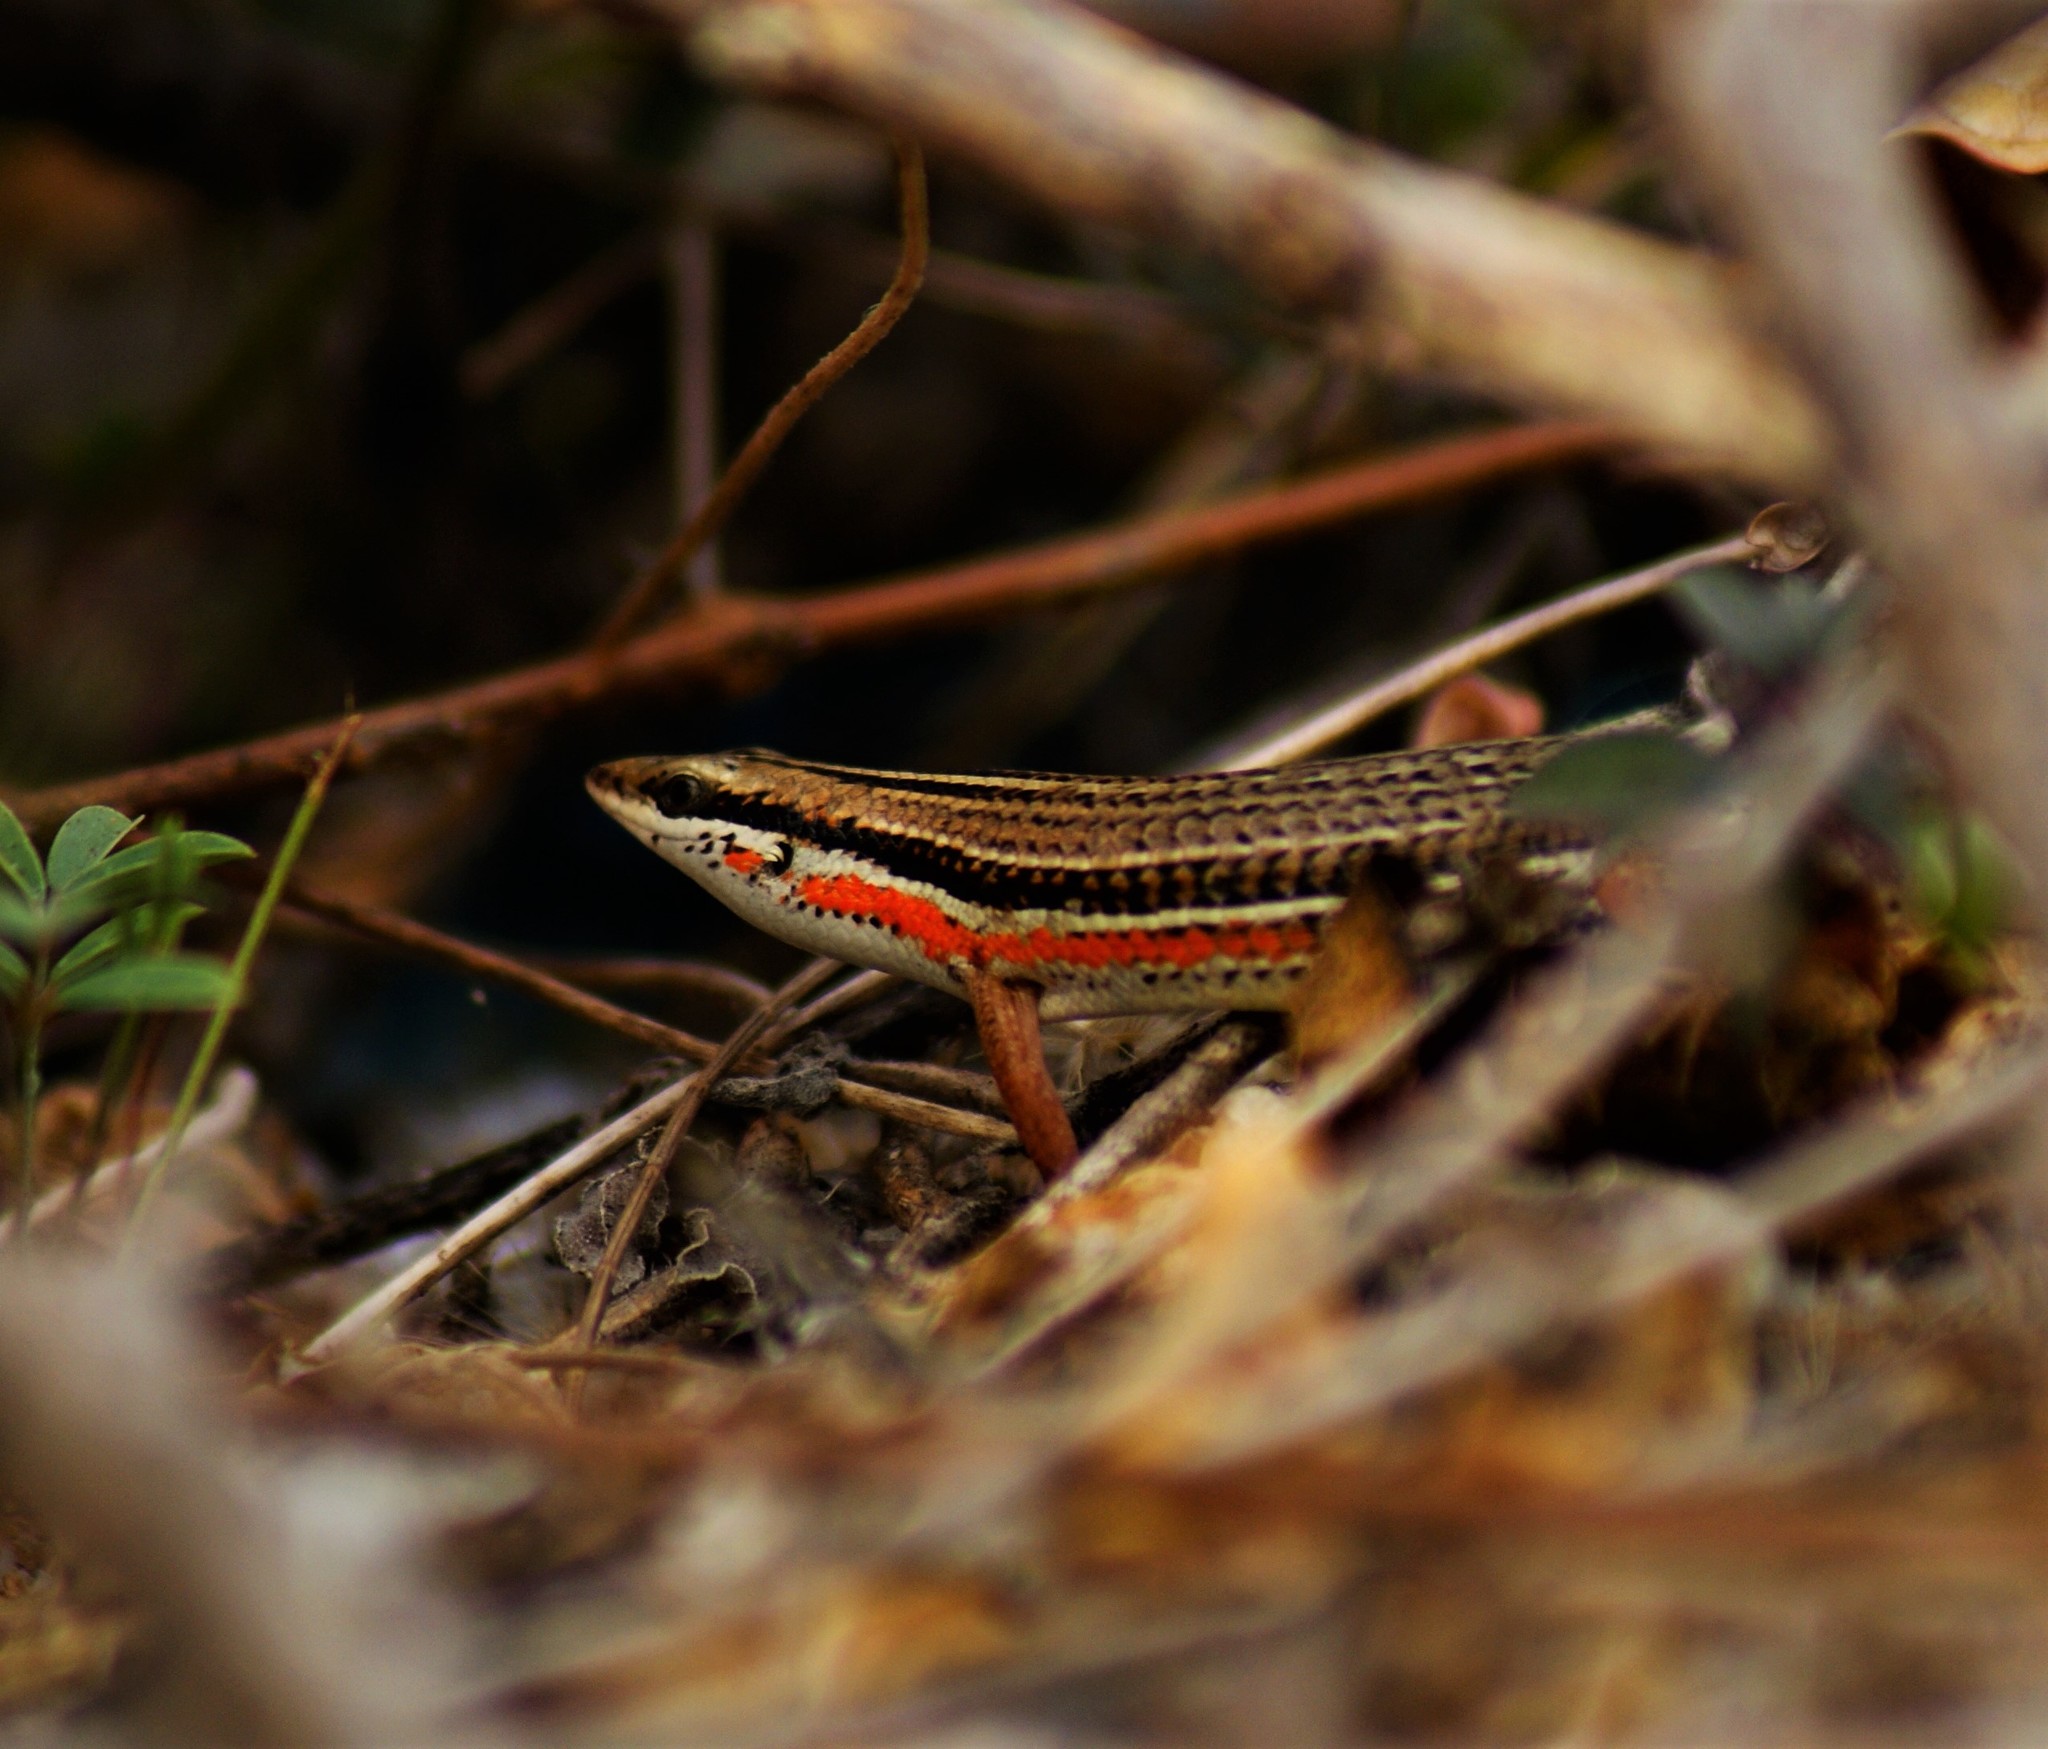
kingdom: Animalia
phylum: Chordata
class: Squamata
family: Scincidae
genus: Eutropis
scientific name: Eutropis bibronii
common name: Bibron's skink
